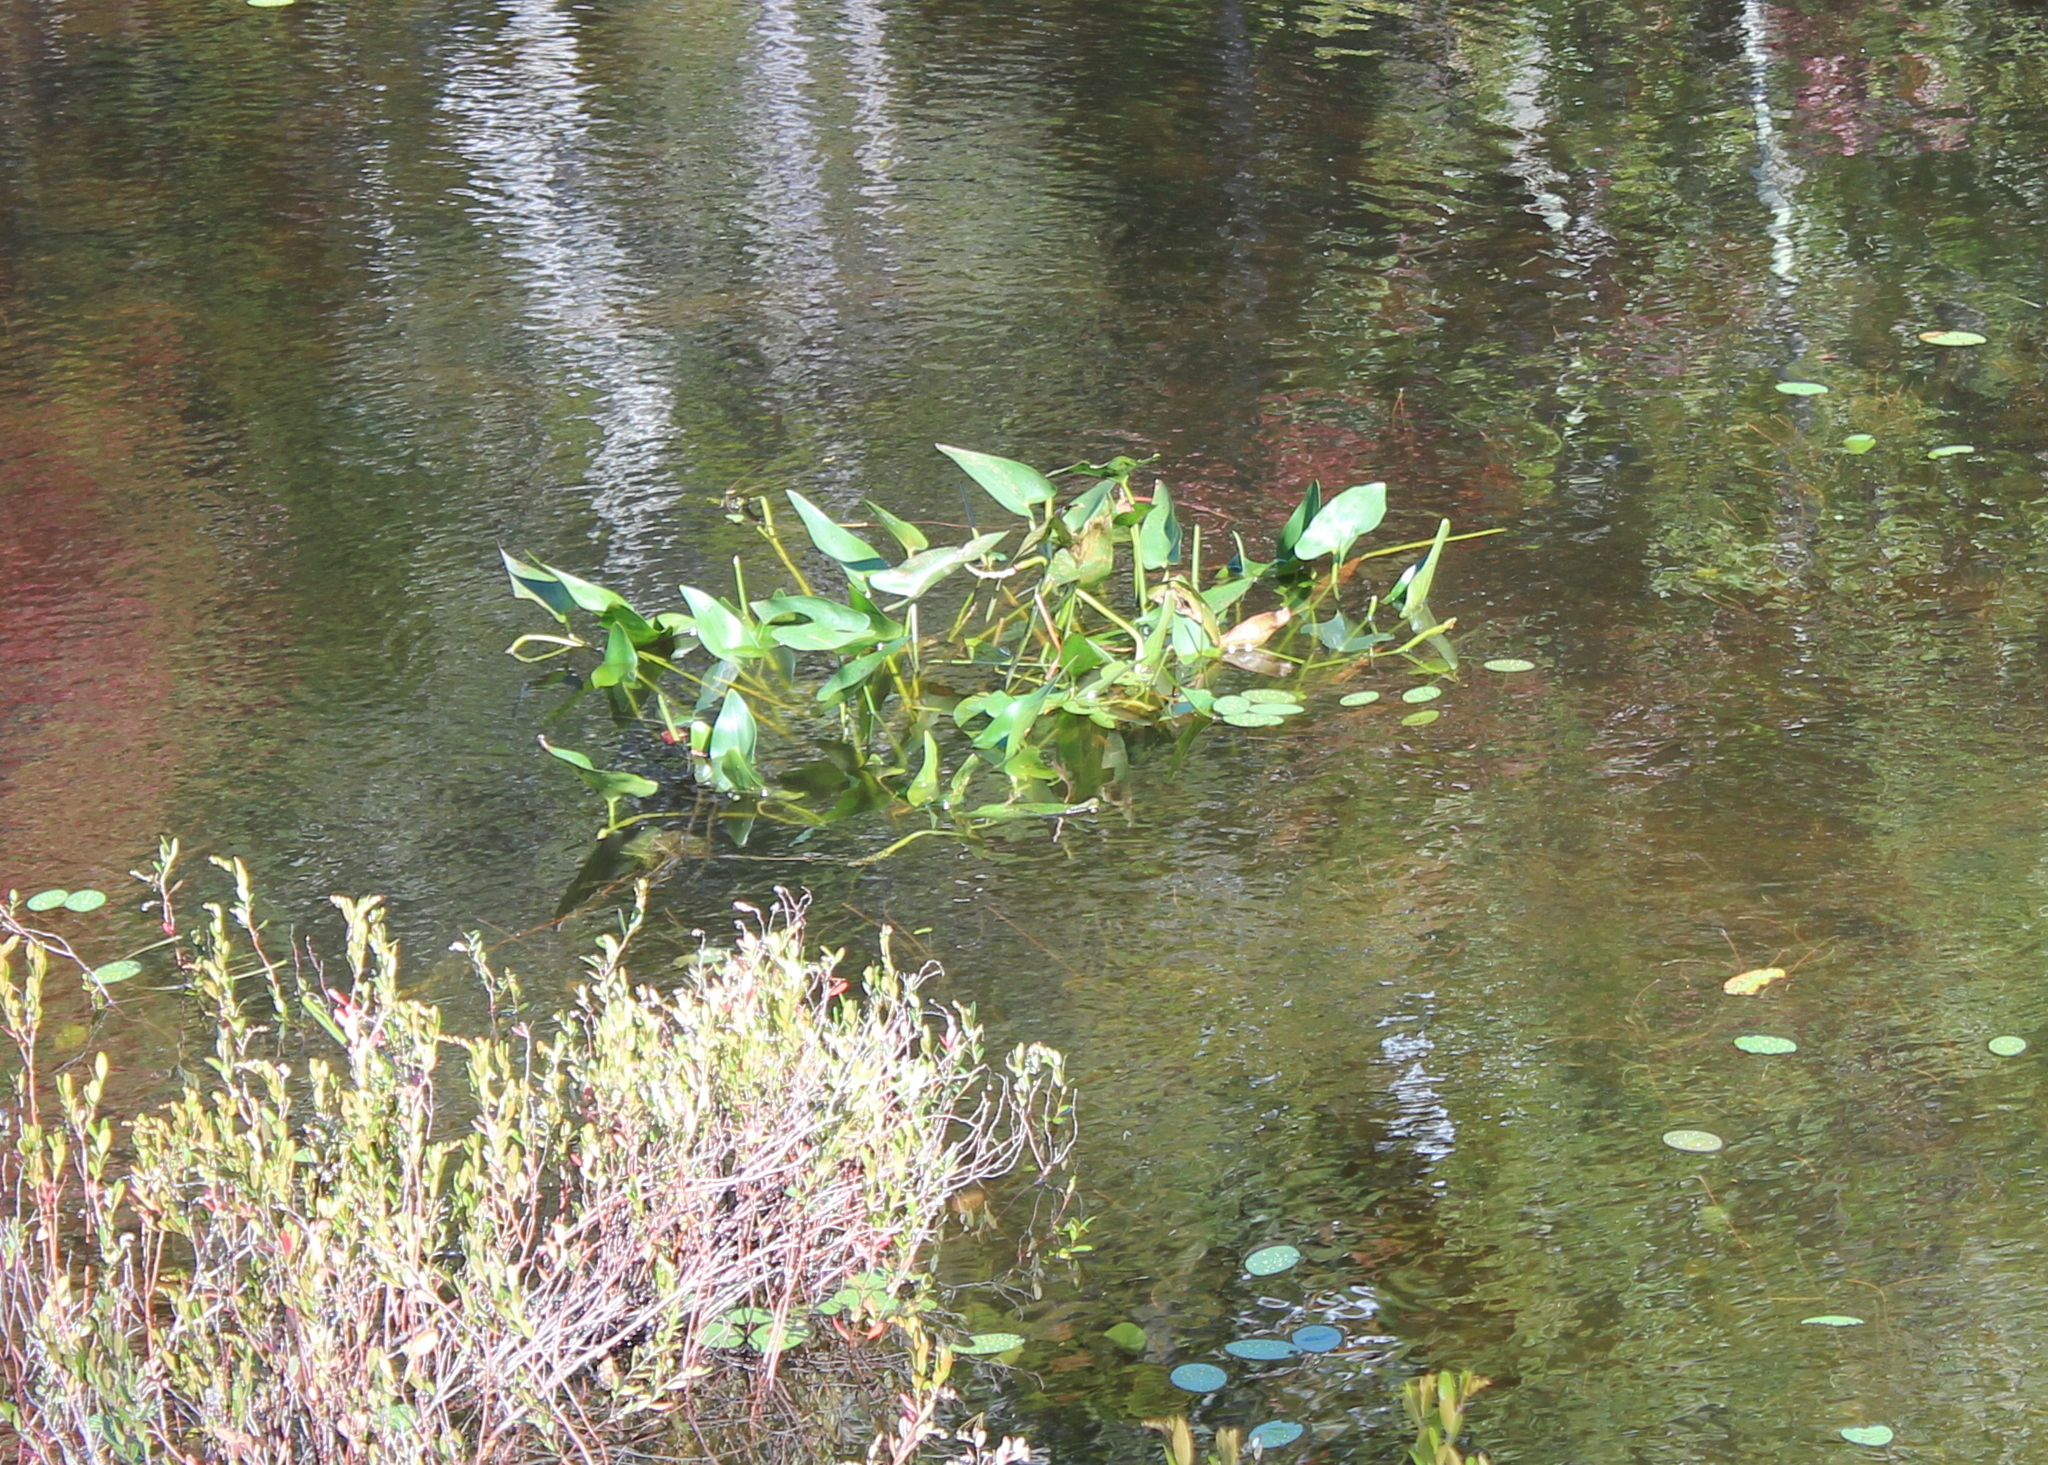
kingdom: Plantae
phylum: Tracheophyta
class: Liliopsida
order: Commelinales
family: Pontederiaceae
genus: Pontederia
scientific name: Pontederia cordata
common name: Pickerelweed
